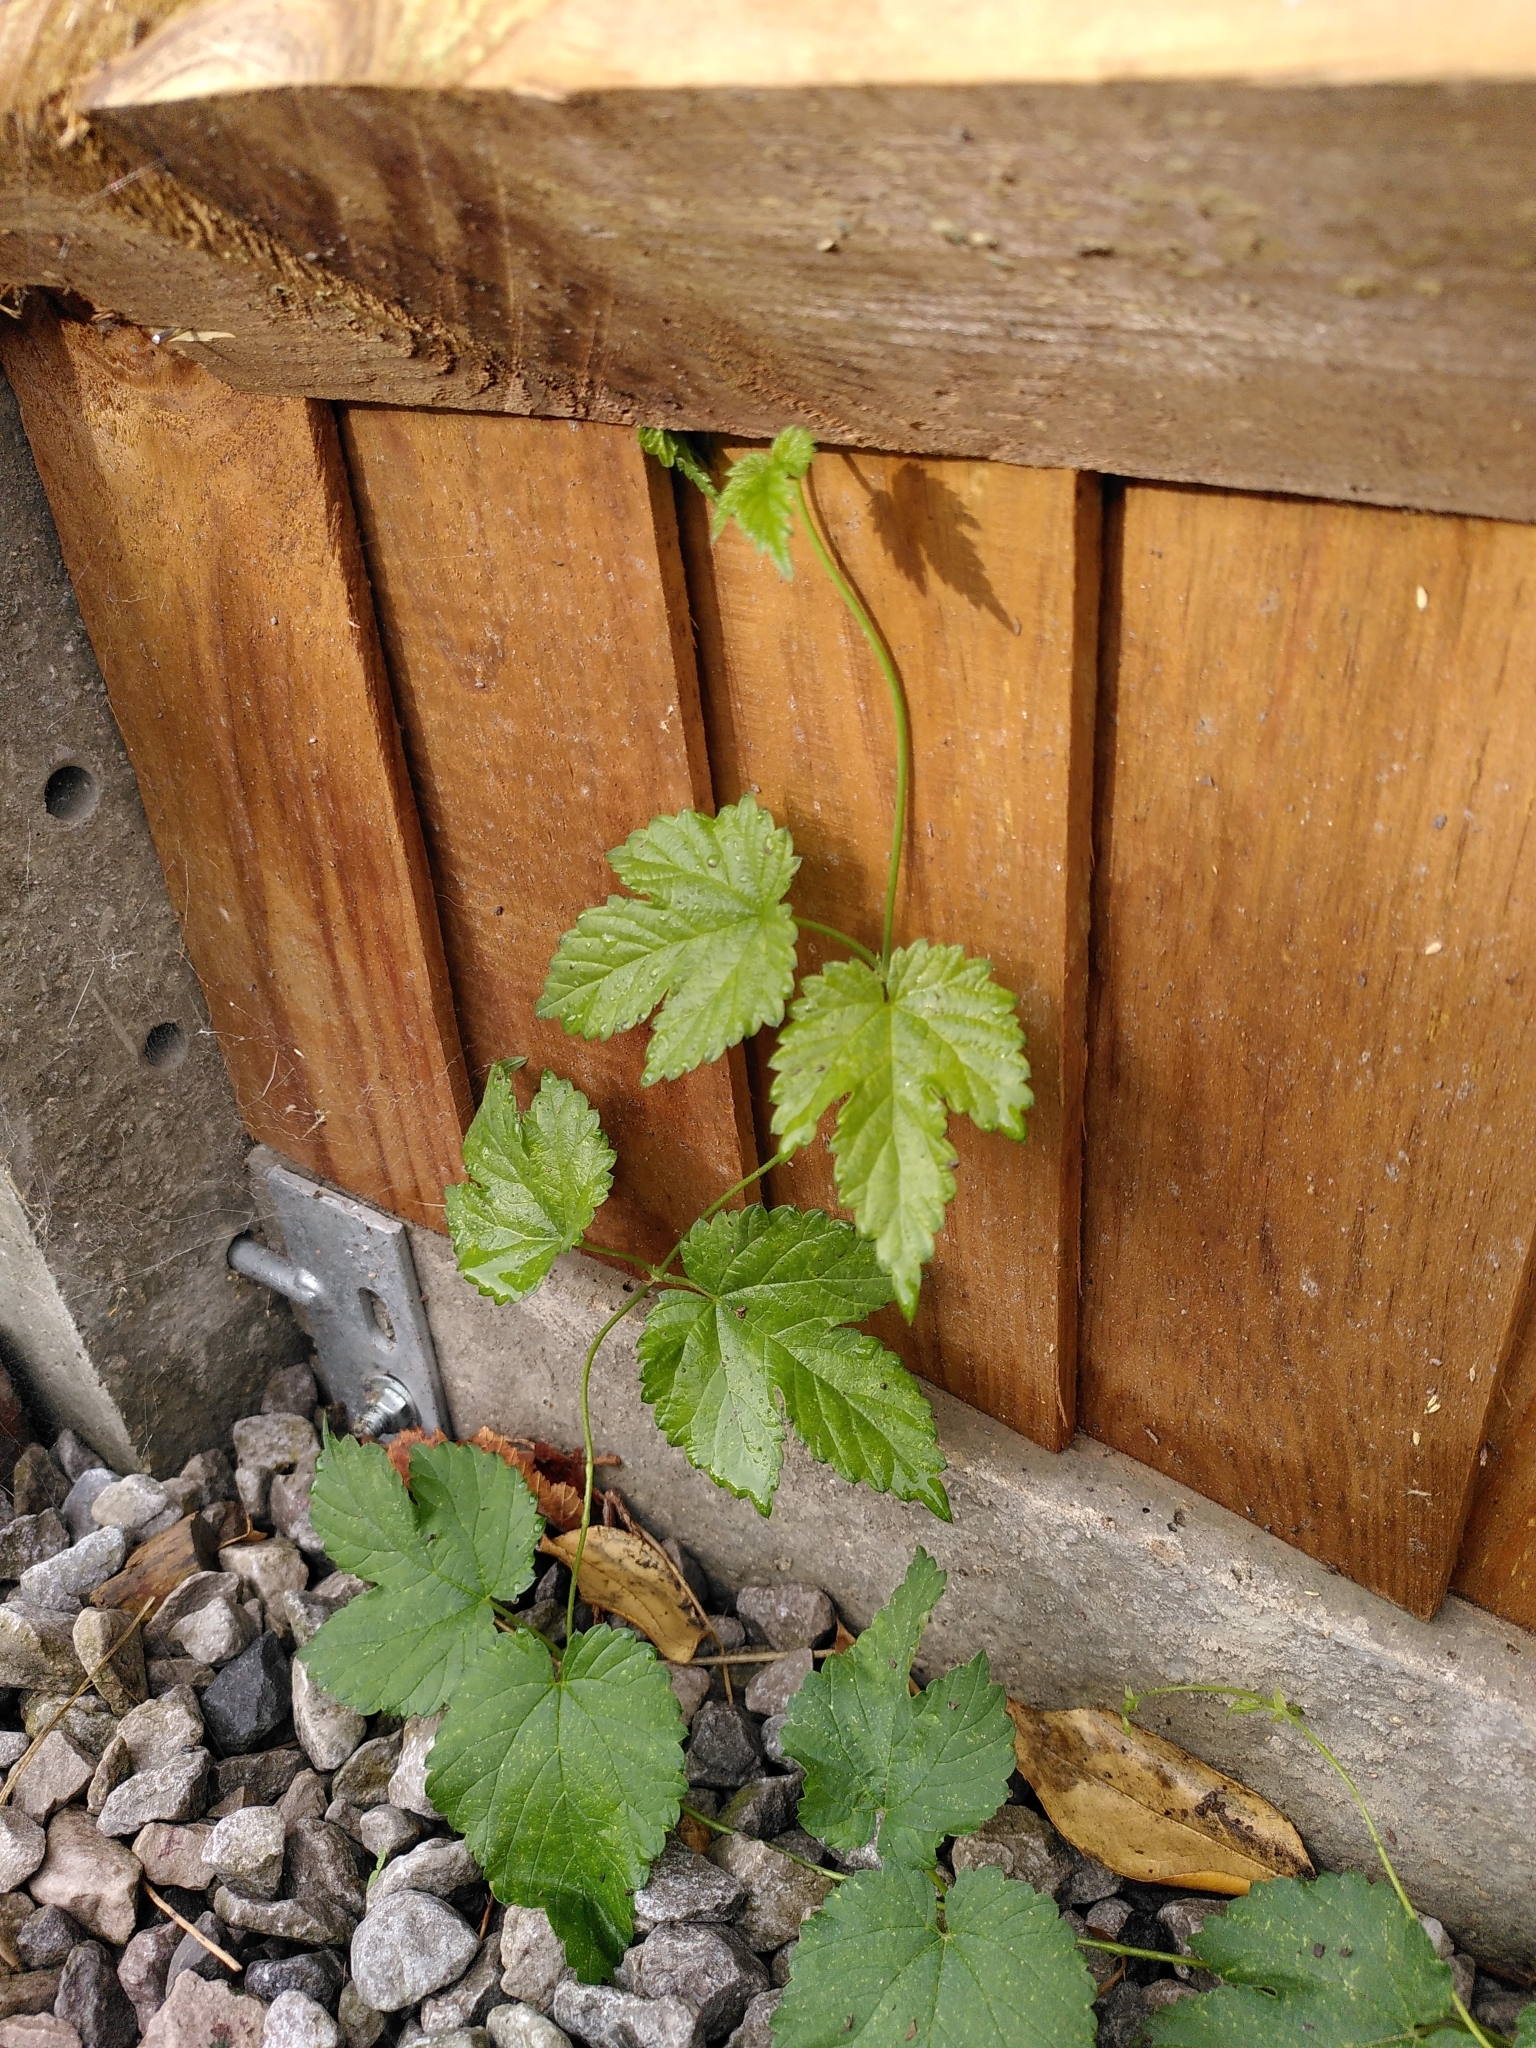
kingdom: Plantae
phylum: Tracheophyta
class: Magnoliopsida
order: Rosales
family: Cannabaceae
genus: Humulus
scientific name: Humulus lupulus
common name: Hop
